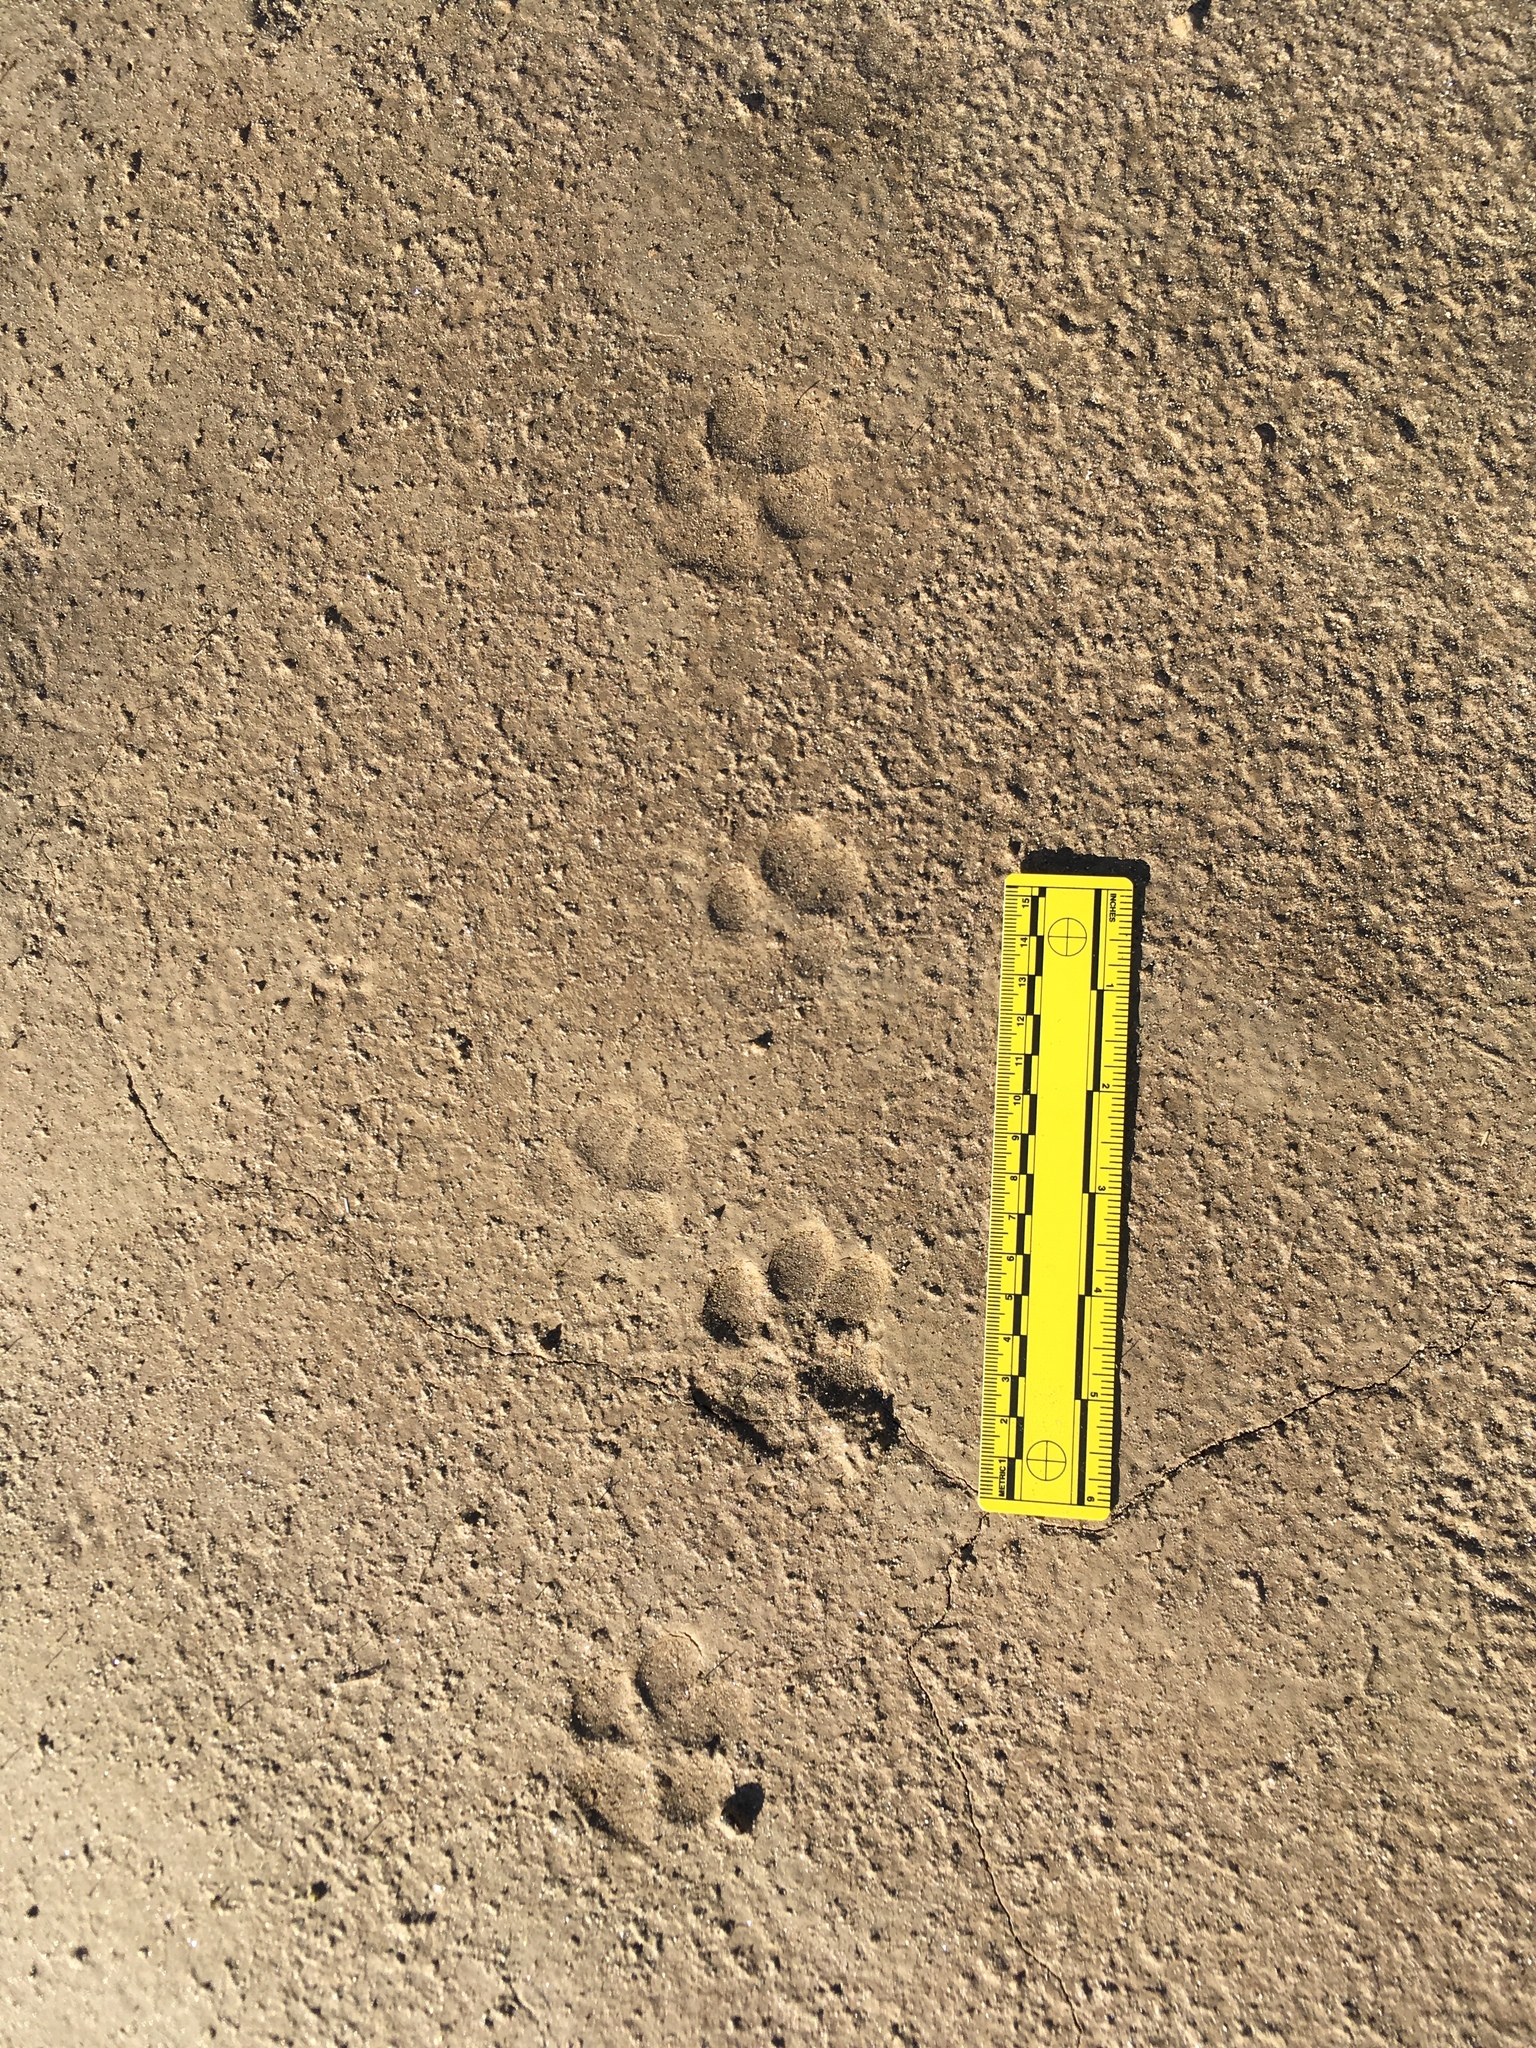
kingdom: Animalia
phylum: Chordata
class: Mammalia
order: Carnivora
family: Canidae
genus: Canis
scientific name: Canis latrans
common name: Coyote
